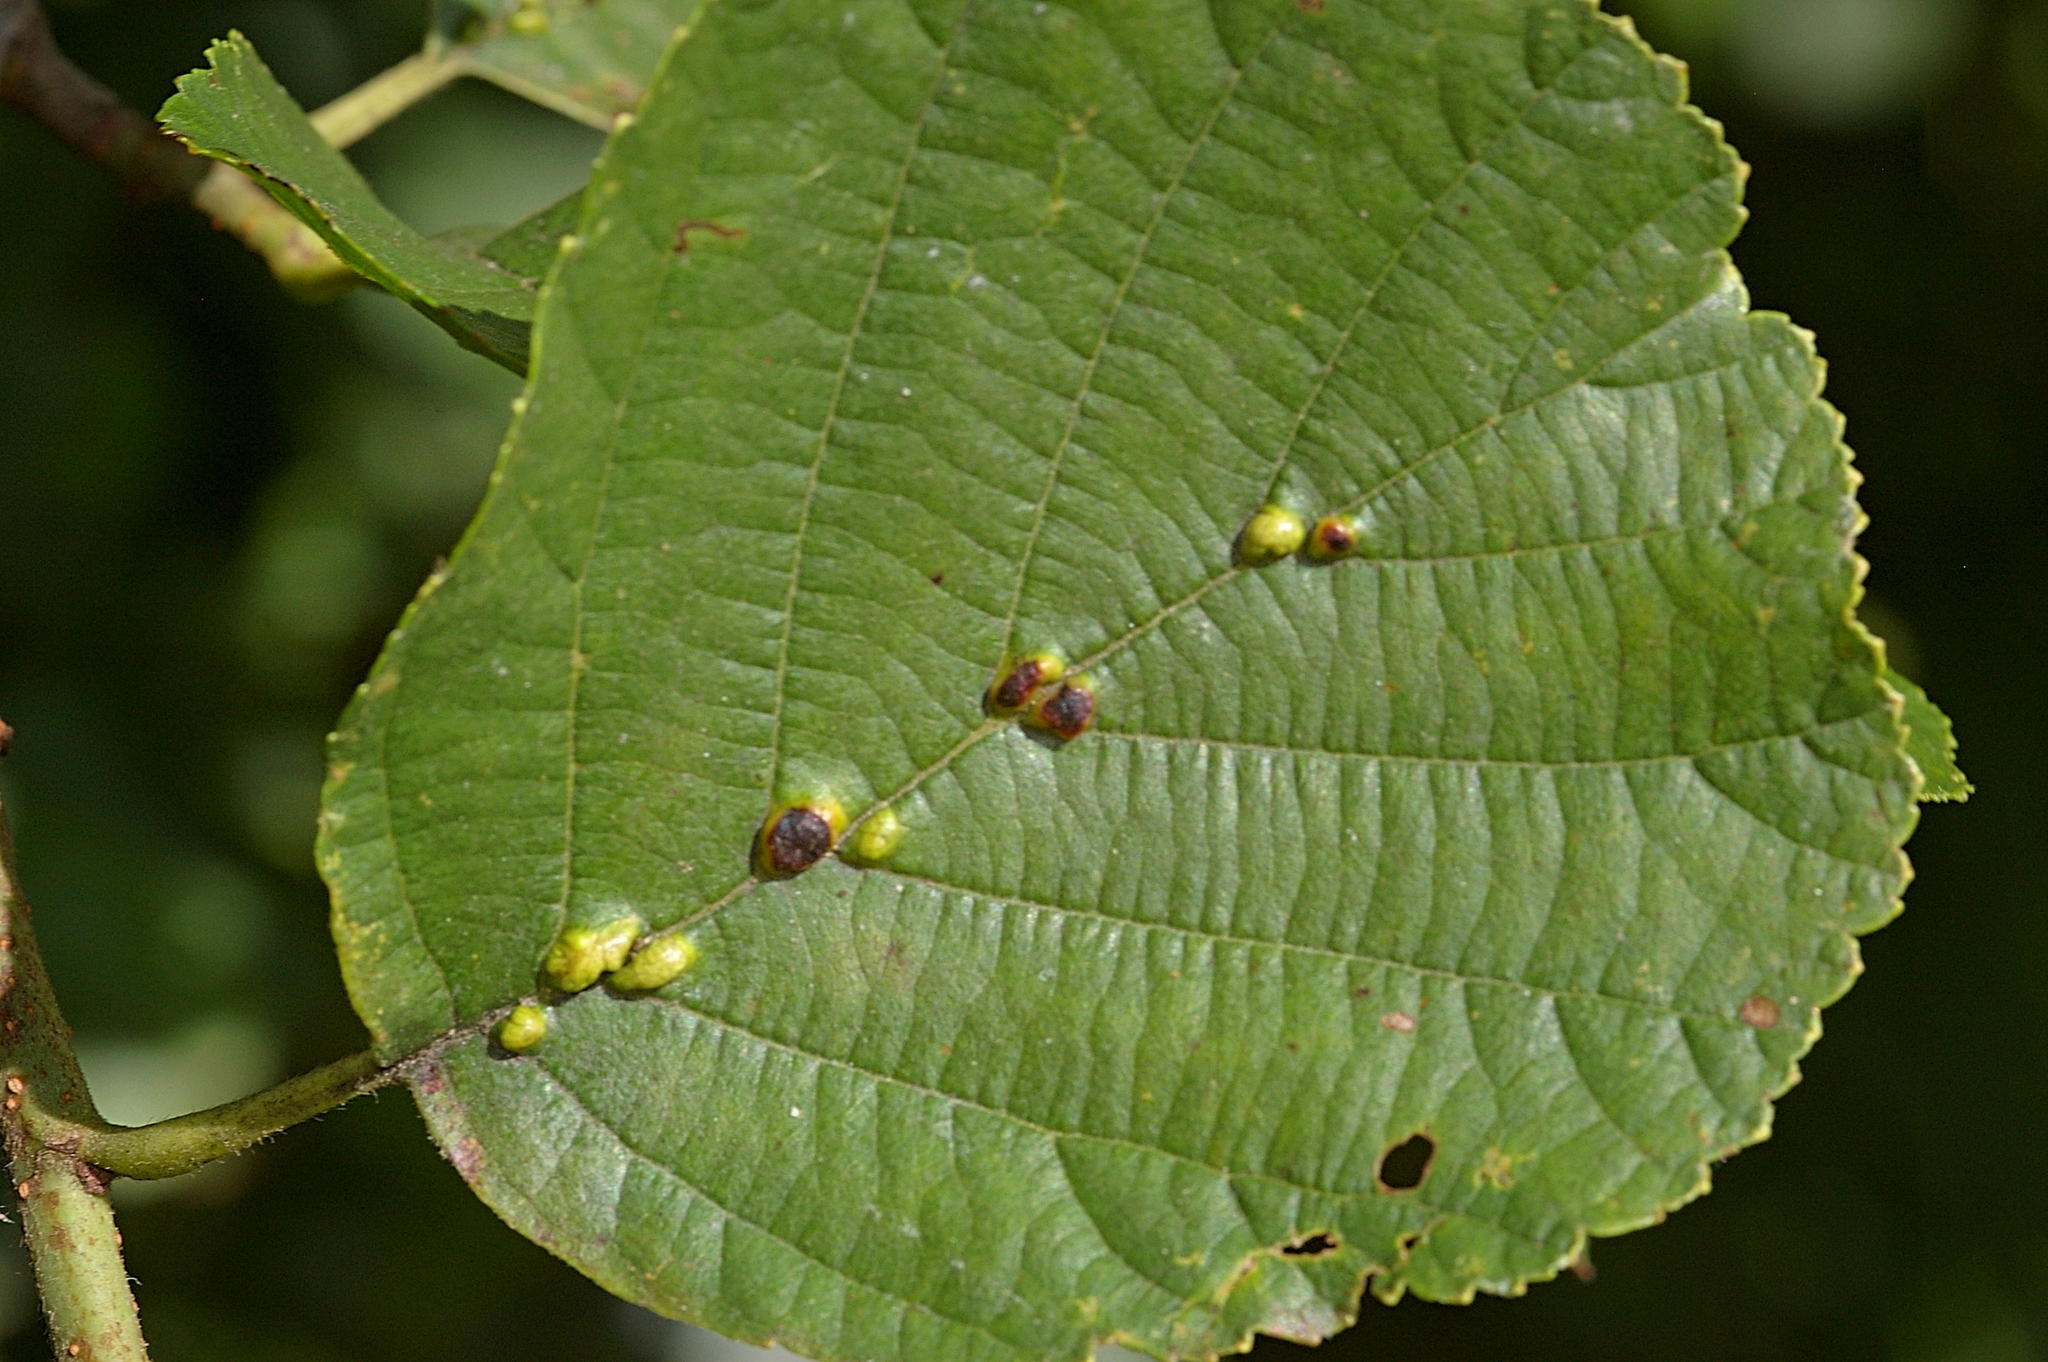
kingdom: Animalia
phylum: Arthropoda
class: Arachnida
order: Trombidiformes
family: Eriophyidae
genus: Eriophyes
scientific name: Eriophyes inangulis
